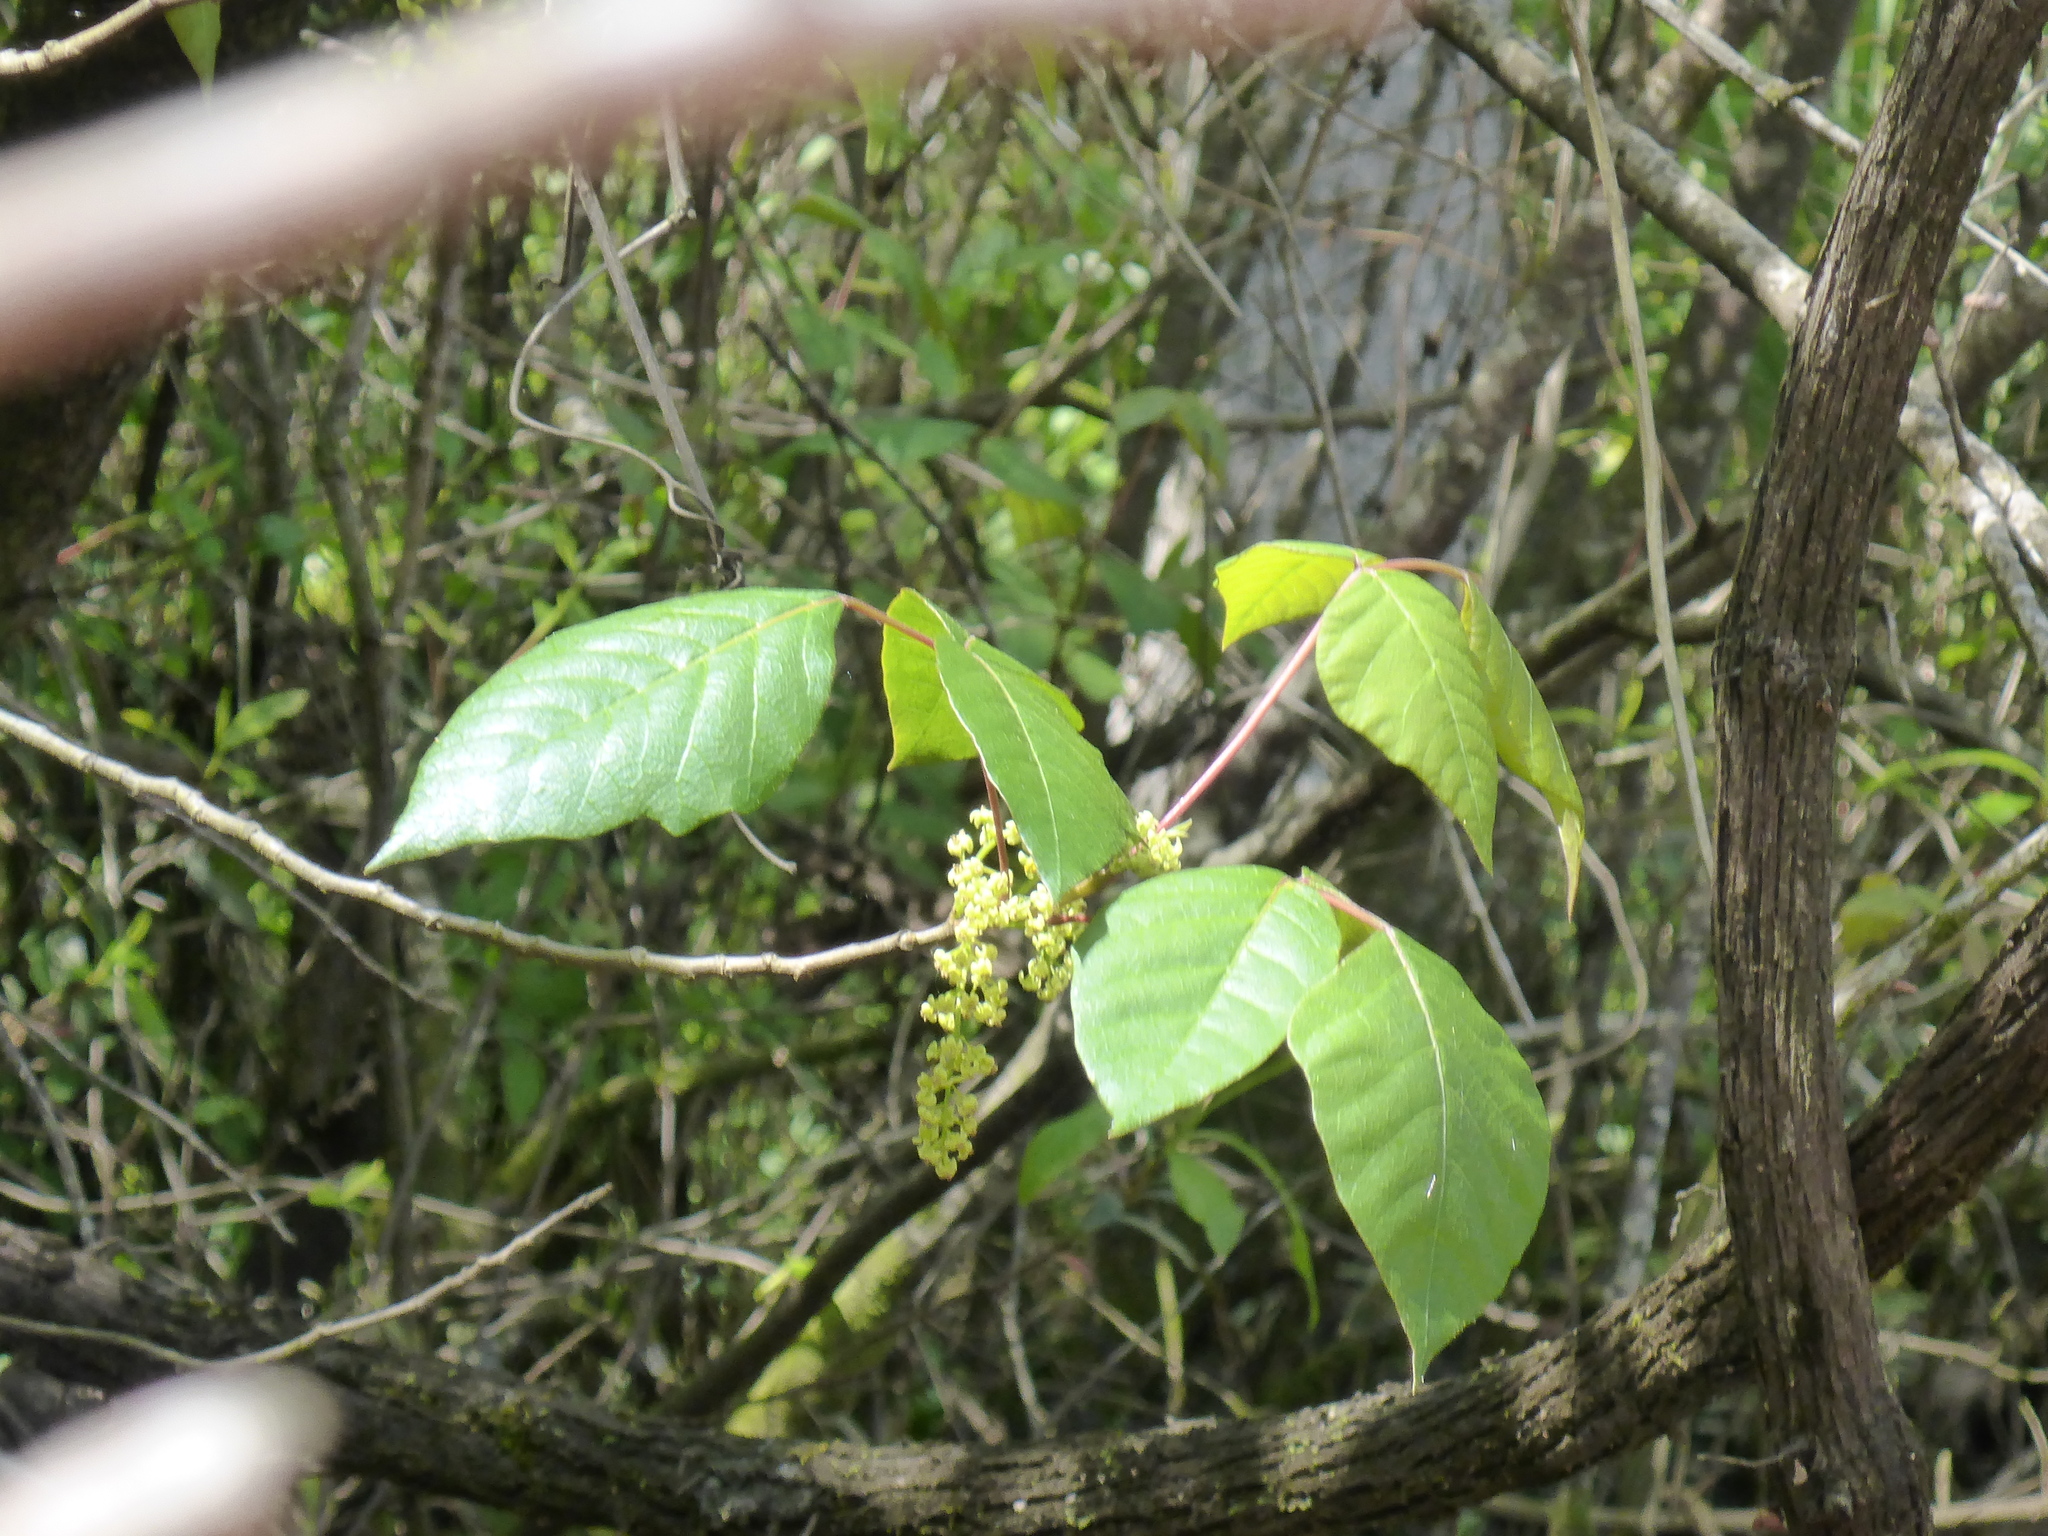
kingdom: Plantae
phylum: Tracheophyta
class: Magnoliopsida
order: Sapindales
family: Anacardiaceae
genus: Toxicodendron
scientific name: Toxicodendron radicans
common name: Poison ivy
